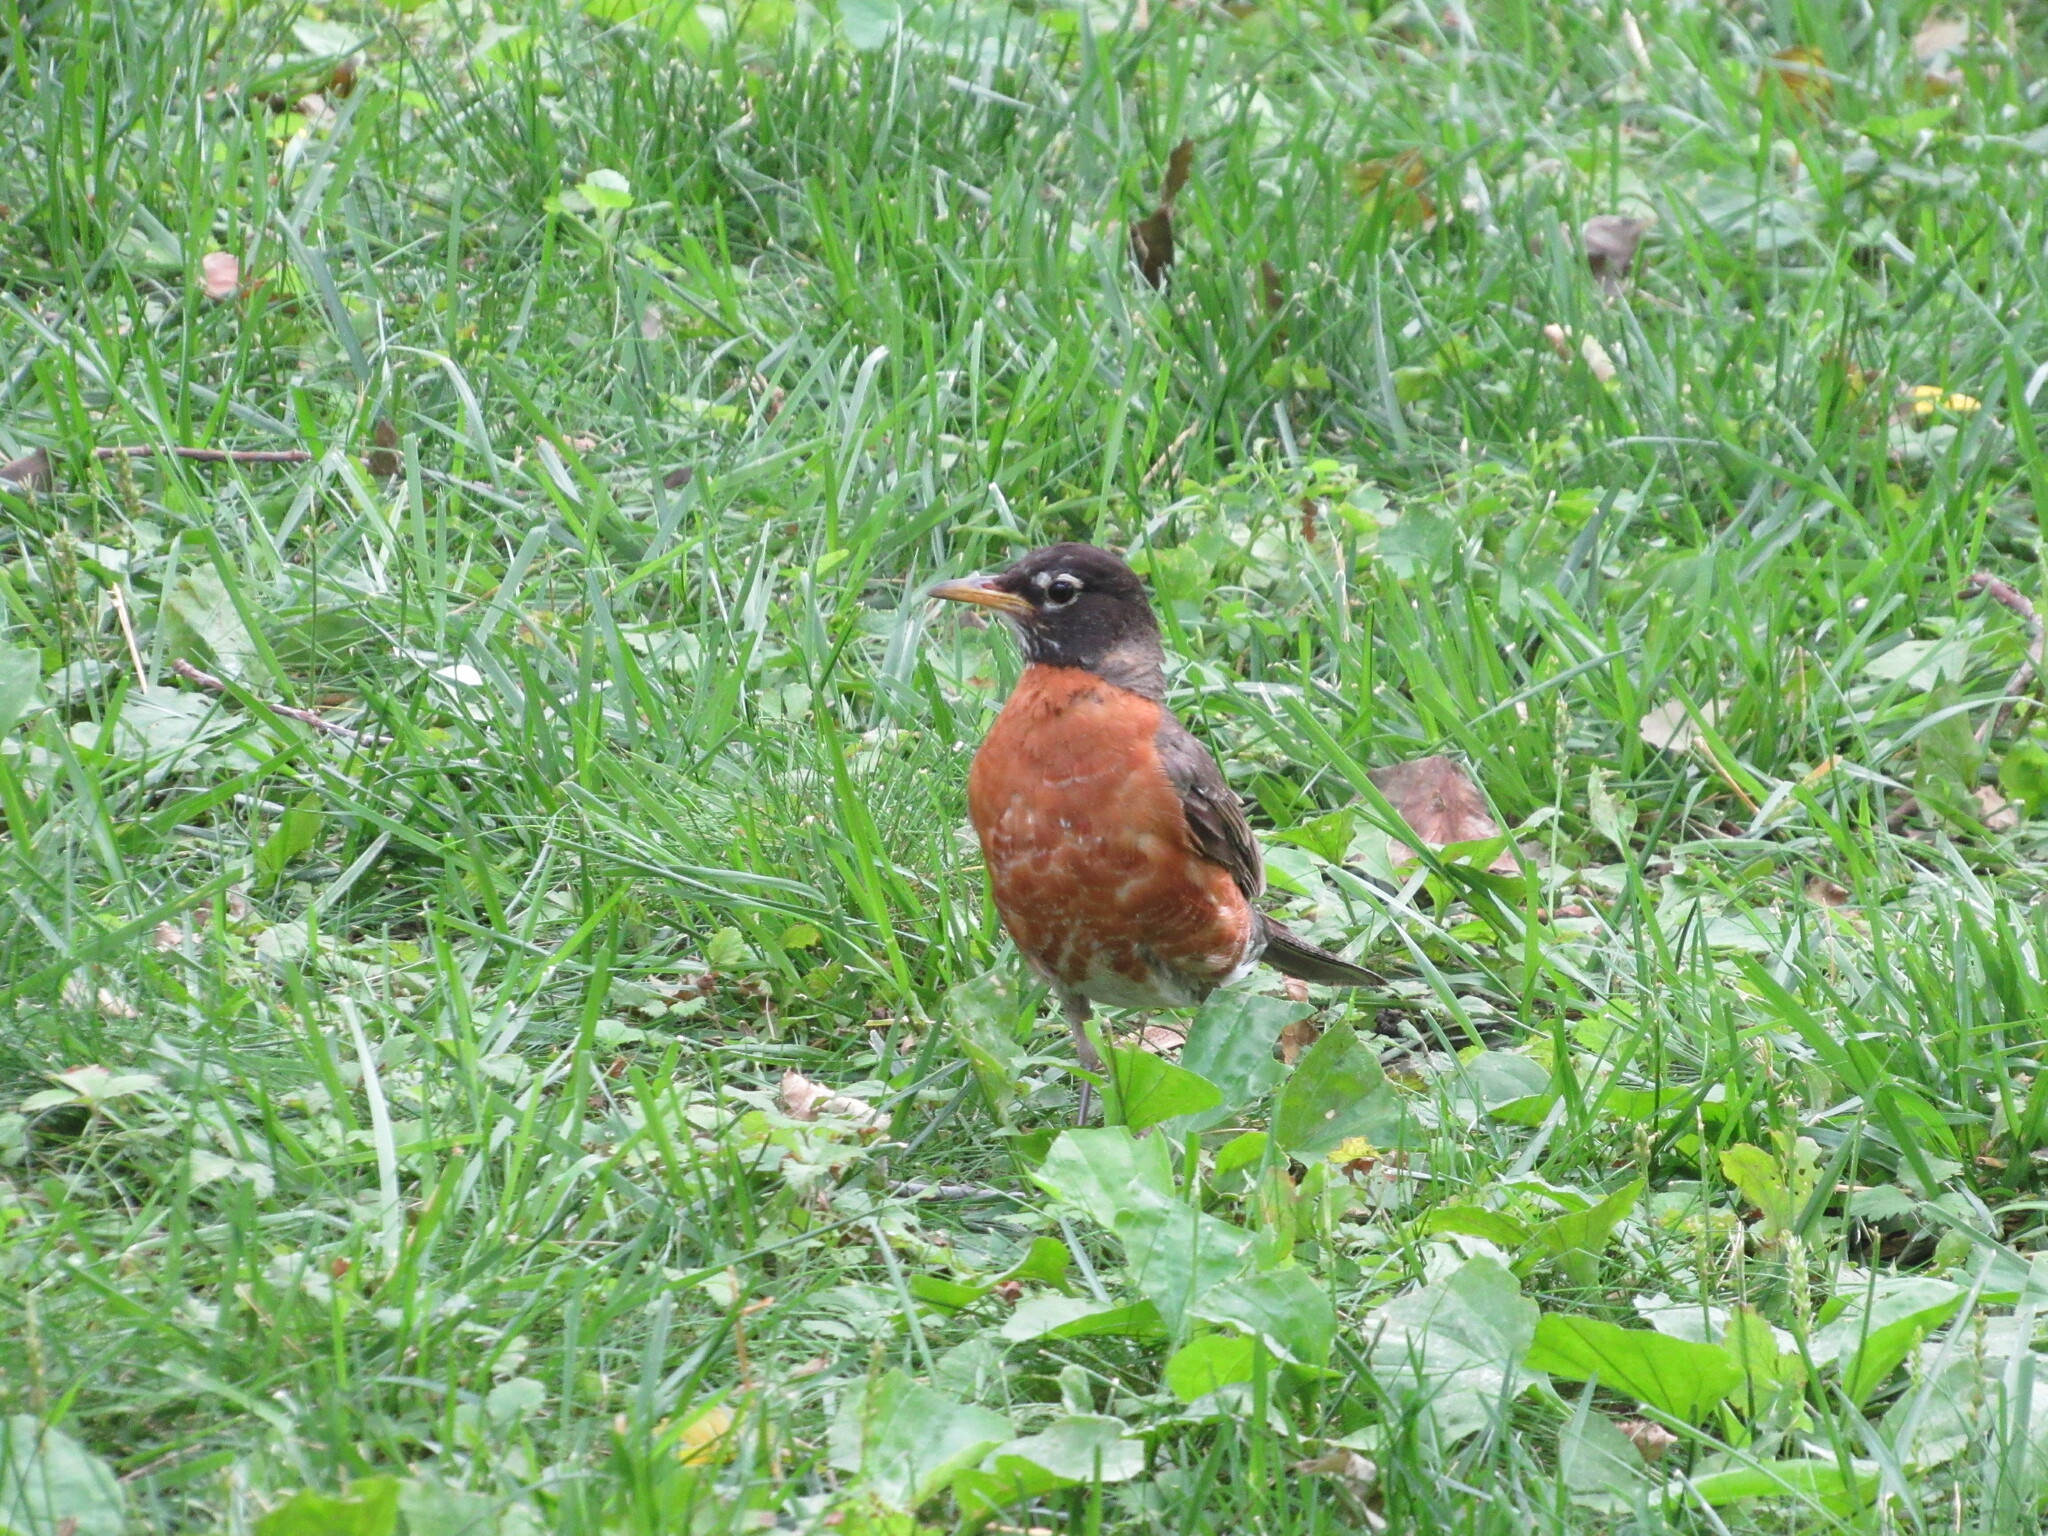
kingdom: Animalia
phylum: Chordata
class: Aves
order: Passeriformes
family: Turdidae
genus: Turdus
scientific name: Turdus migratorius
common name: American robin
